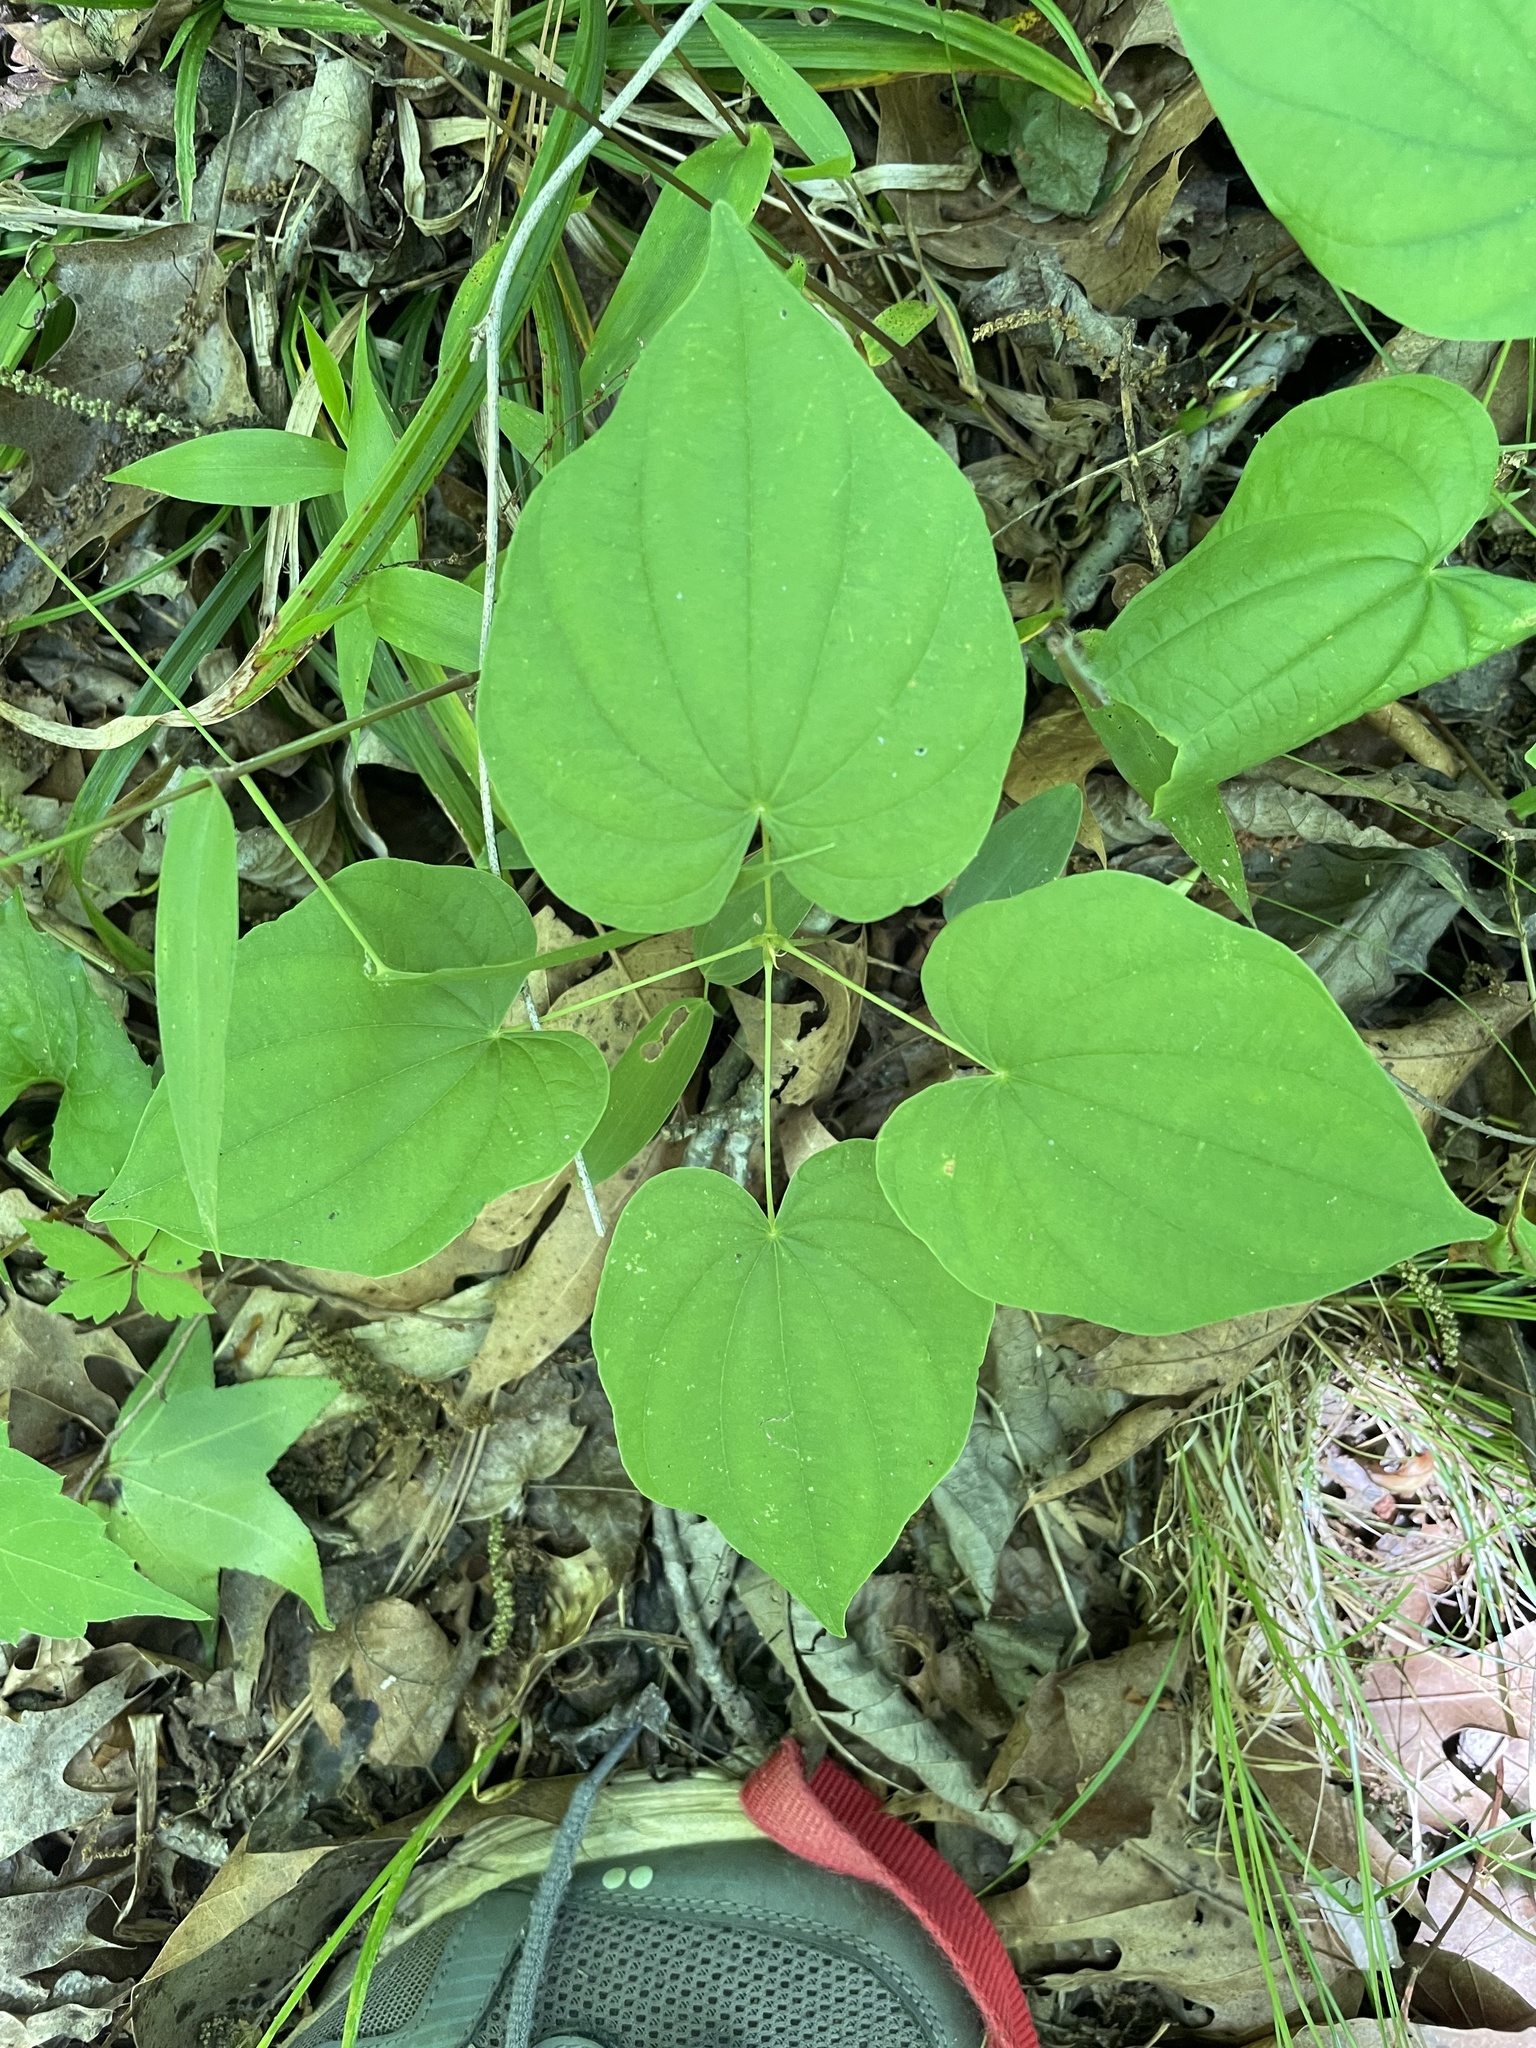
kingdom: Plantae
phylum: Tracheophyta
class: Liliopsida
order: Dioscoreales
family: Dioscoreaceae
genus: Dioscorea
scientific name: Dioscorea villosa
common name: Wild yam
